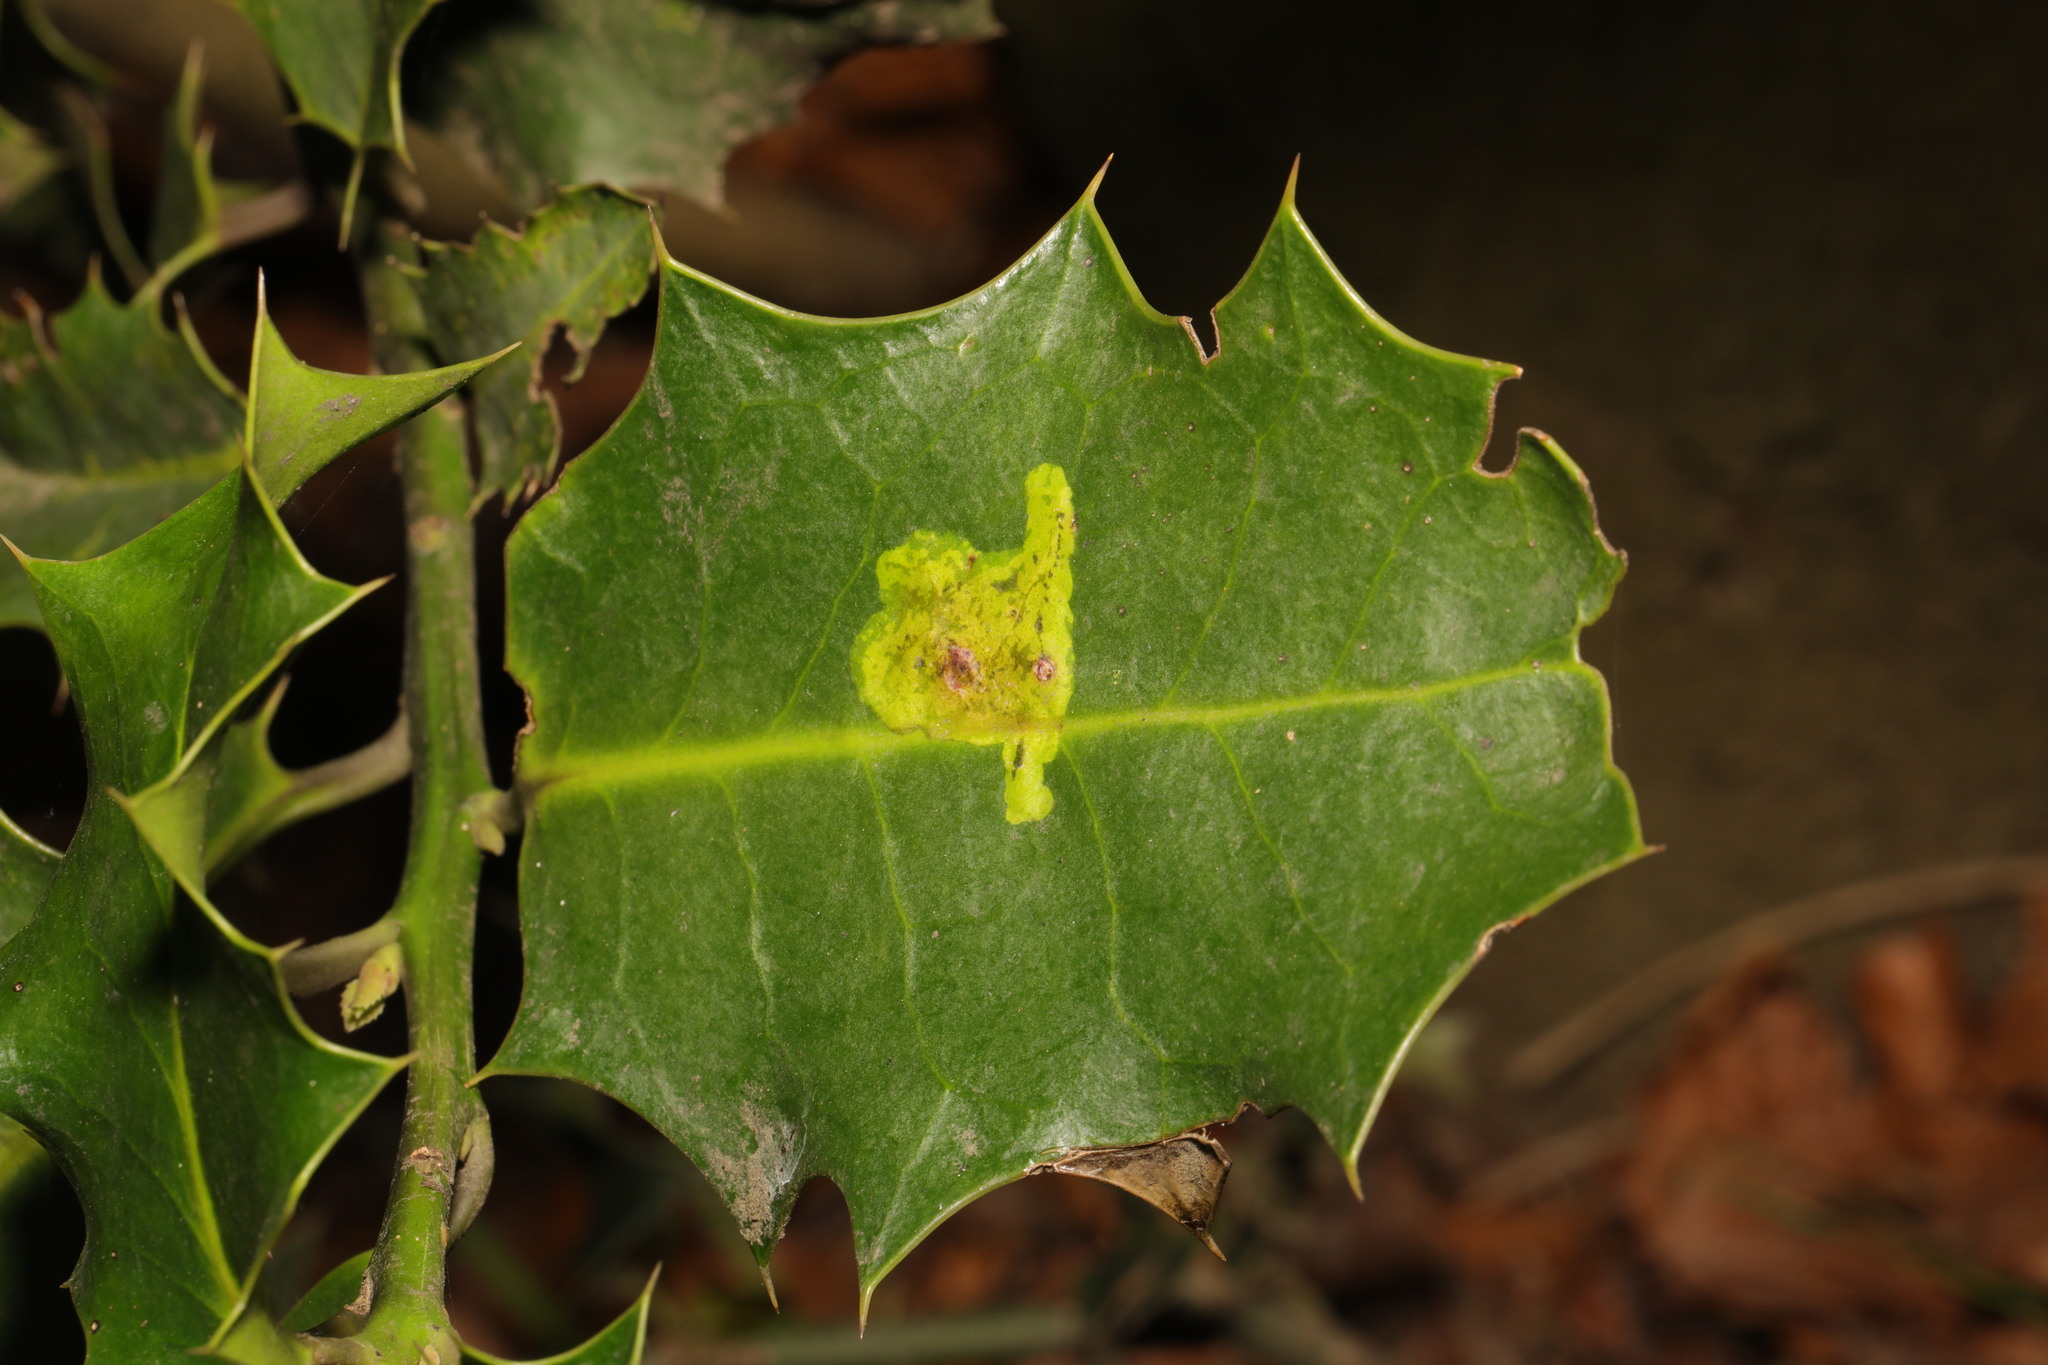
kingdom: Plantae
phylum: Tracheophyta
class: Magnoliopsida
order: Aquifoliales
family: Aquifoliaceae
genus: Ilex
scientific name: Ilex aquifolium
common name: English holly
